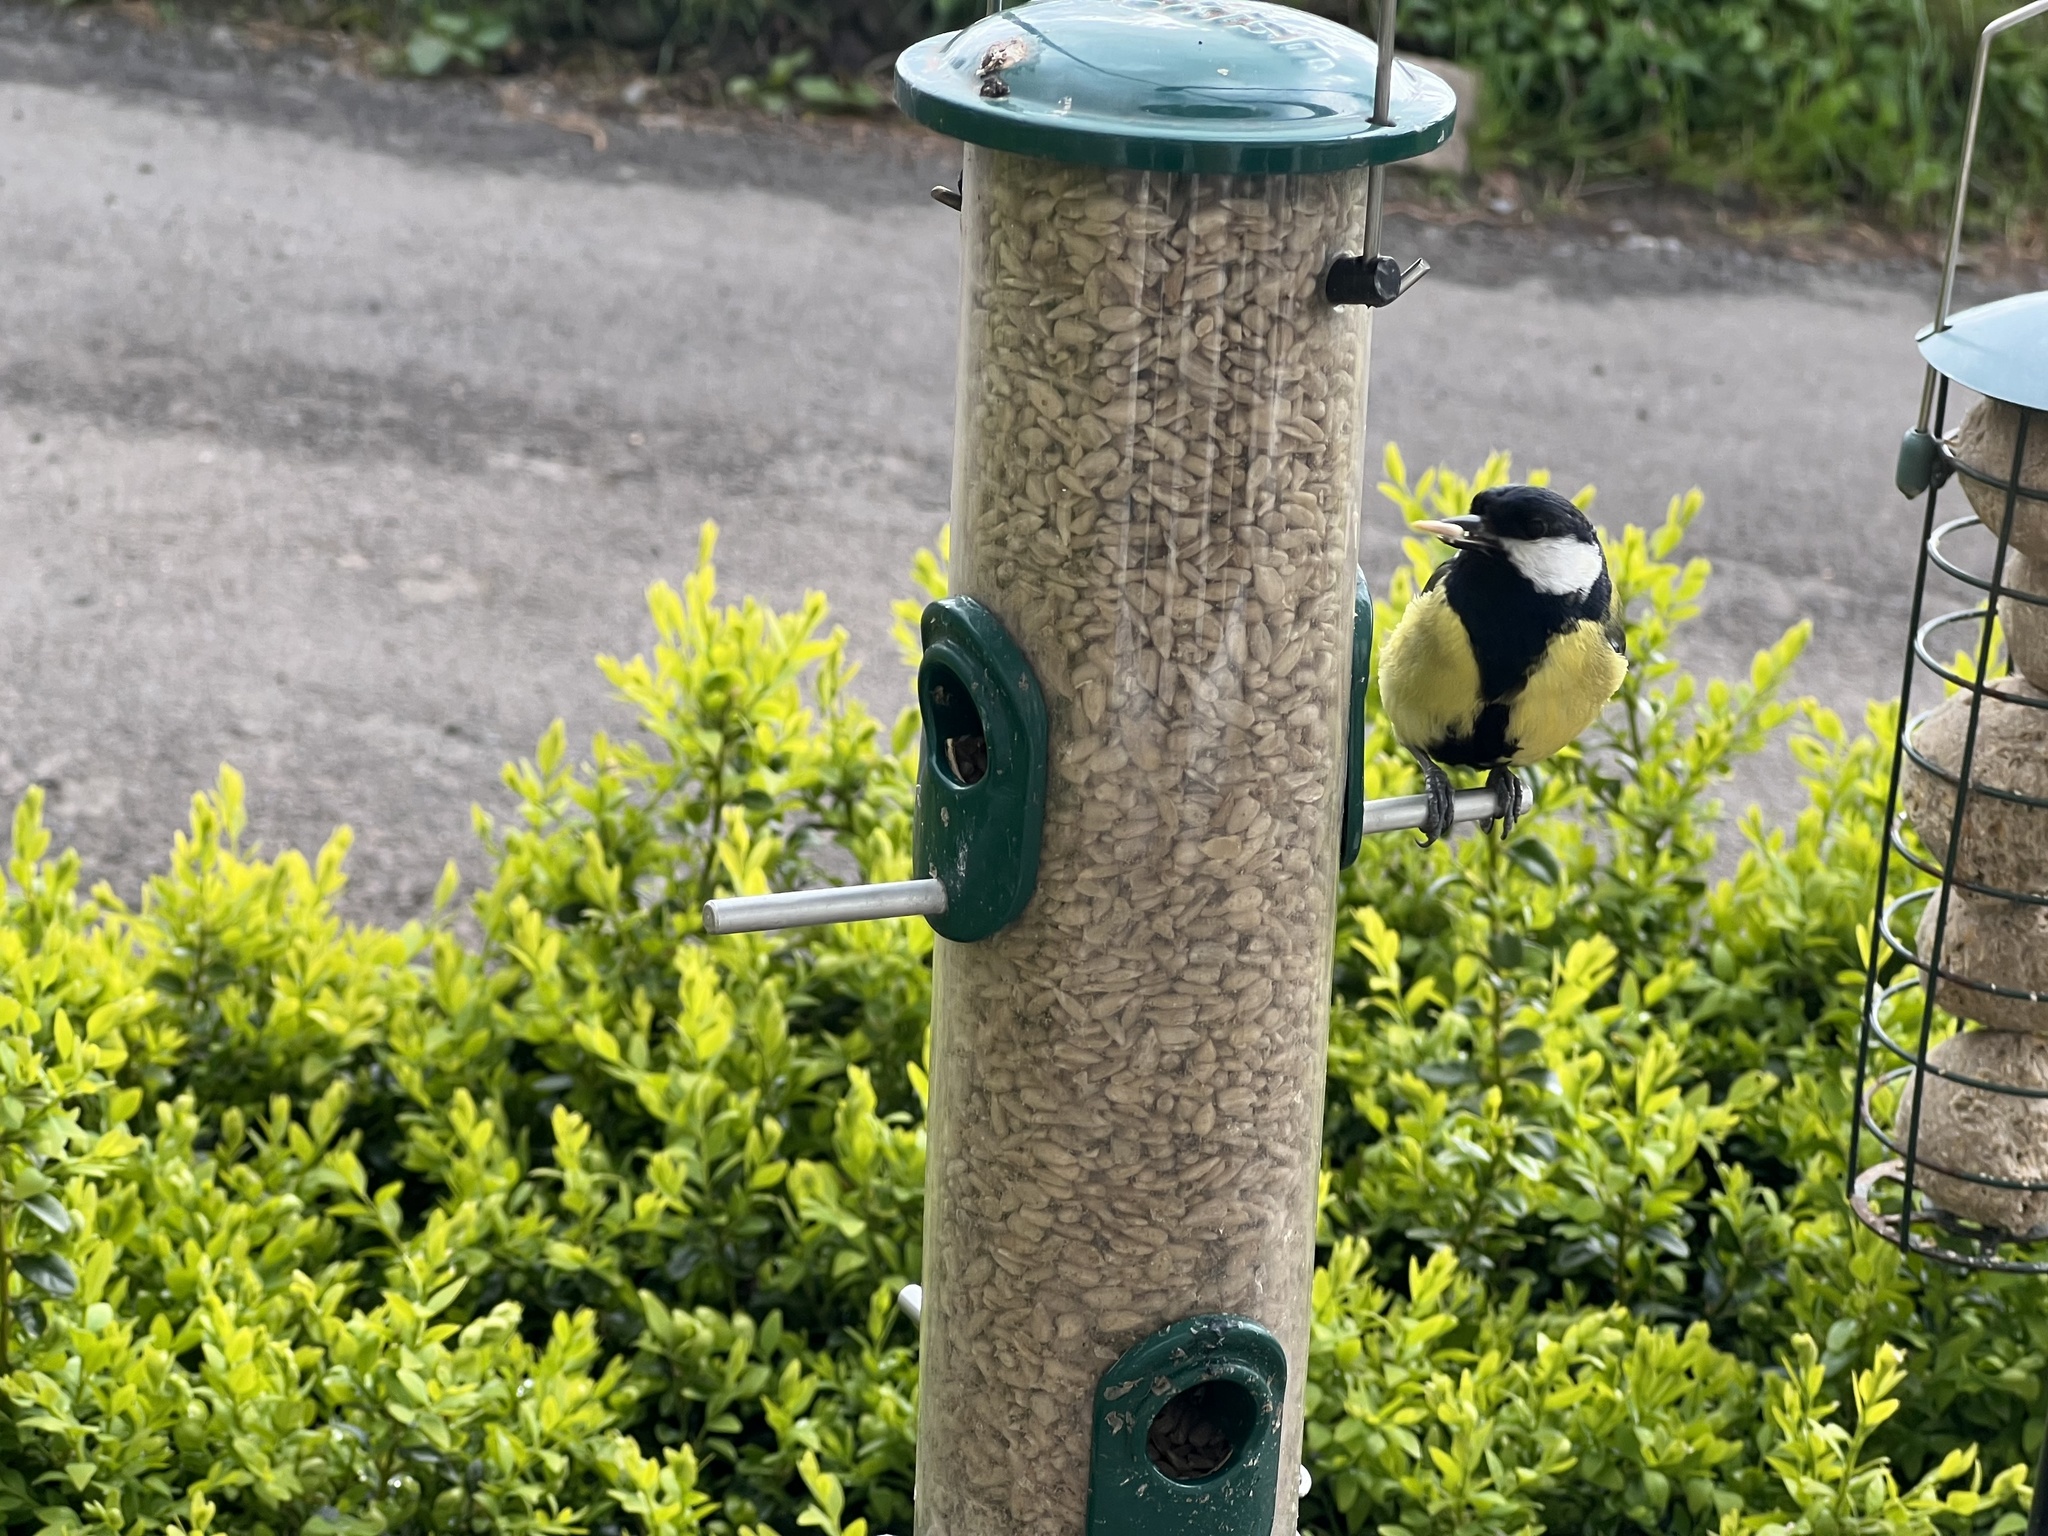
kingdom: Animalia
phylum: Chordata
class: Aves
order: Passeriformes
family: Paridae
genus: Parus
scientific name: Parus major
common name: Great tit
